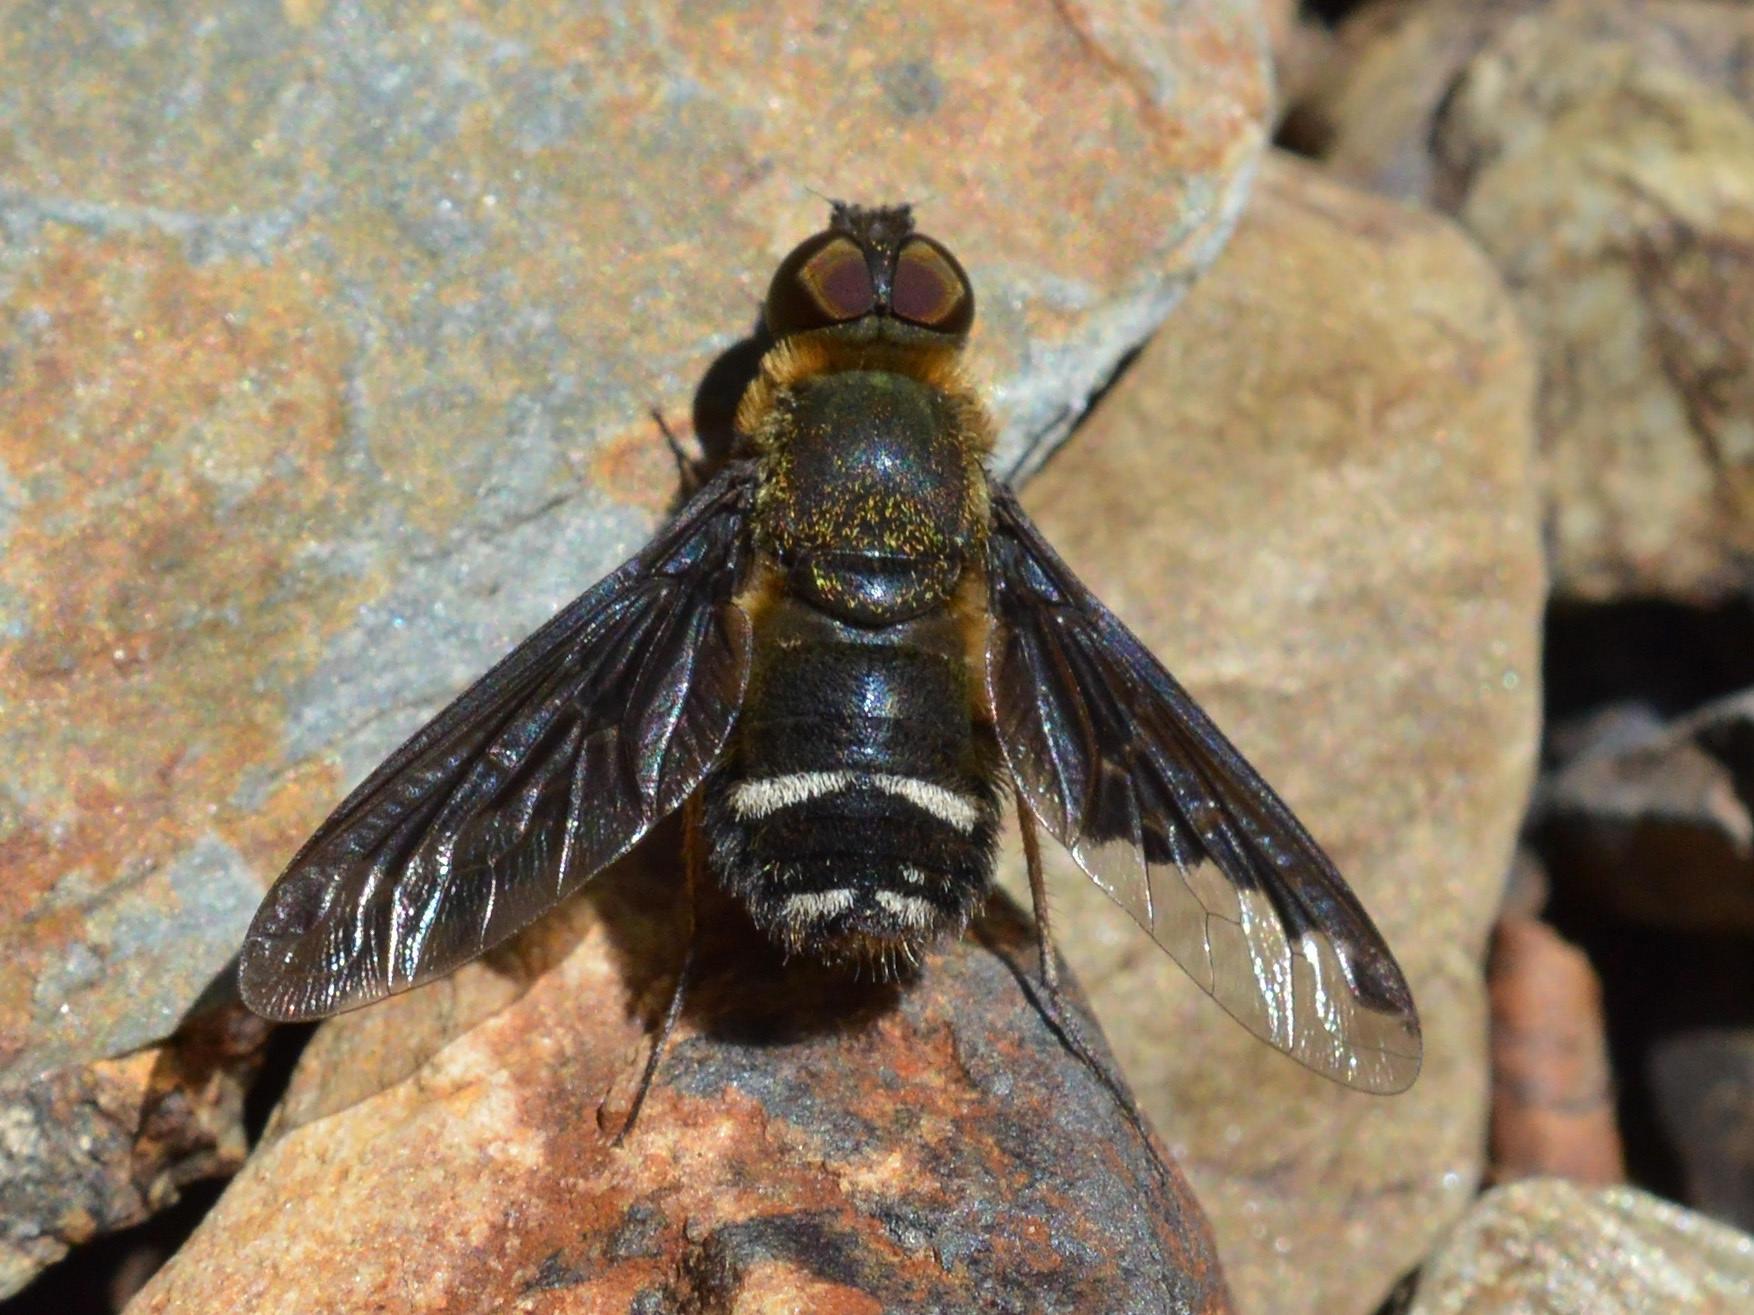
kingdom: Animalia
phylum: Arthropoda
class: Insecta
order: Diptera
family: Bombyliidae
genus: Hemipenthes
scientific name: Hemipenthes velutina
